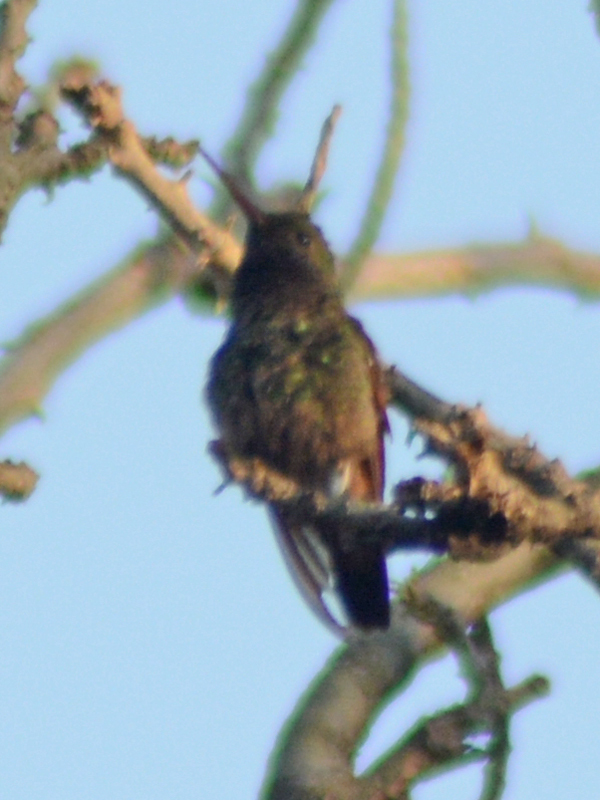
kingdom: Animalia
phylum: Chordata
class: Aves
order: Apodiformes
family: Trochilidae
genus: Saucerottia
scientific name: Saucerottia beryllina
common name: Berylline hummingbird
